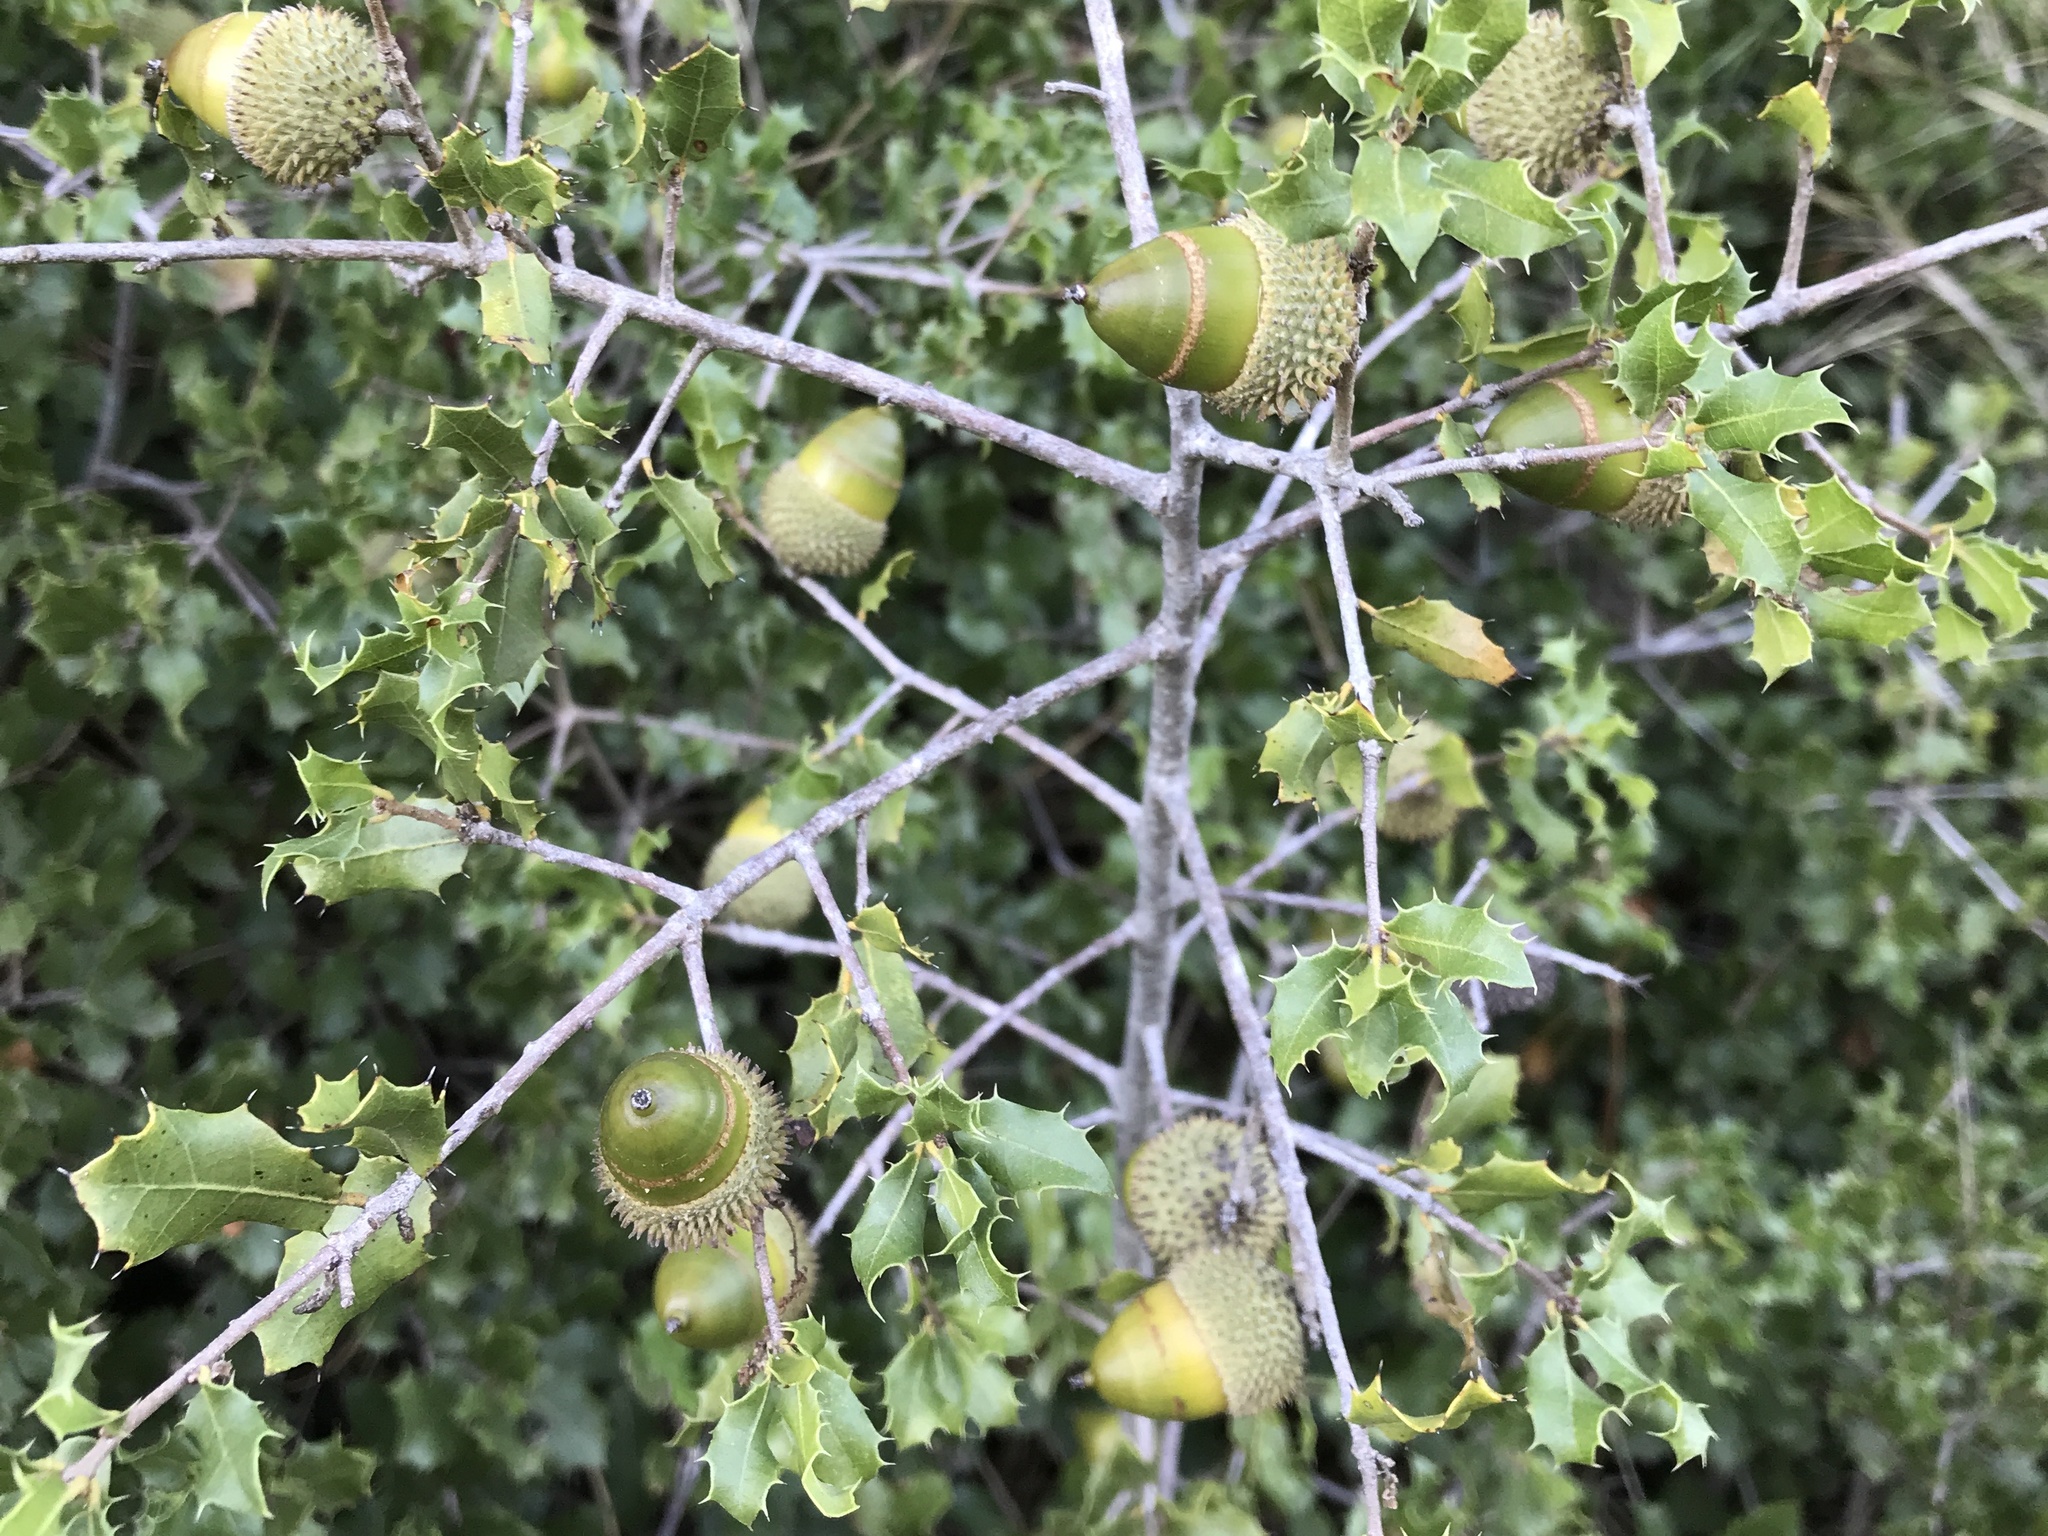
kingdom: Plantae
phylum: Tracheophyta
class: Magnoliopsida
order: Fagales
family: Fagaceae
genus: Quercus
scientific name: Quercus coccifera
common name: Kermes oak
